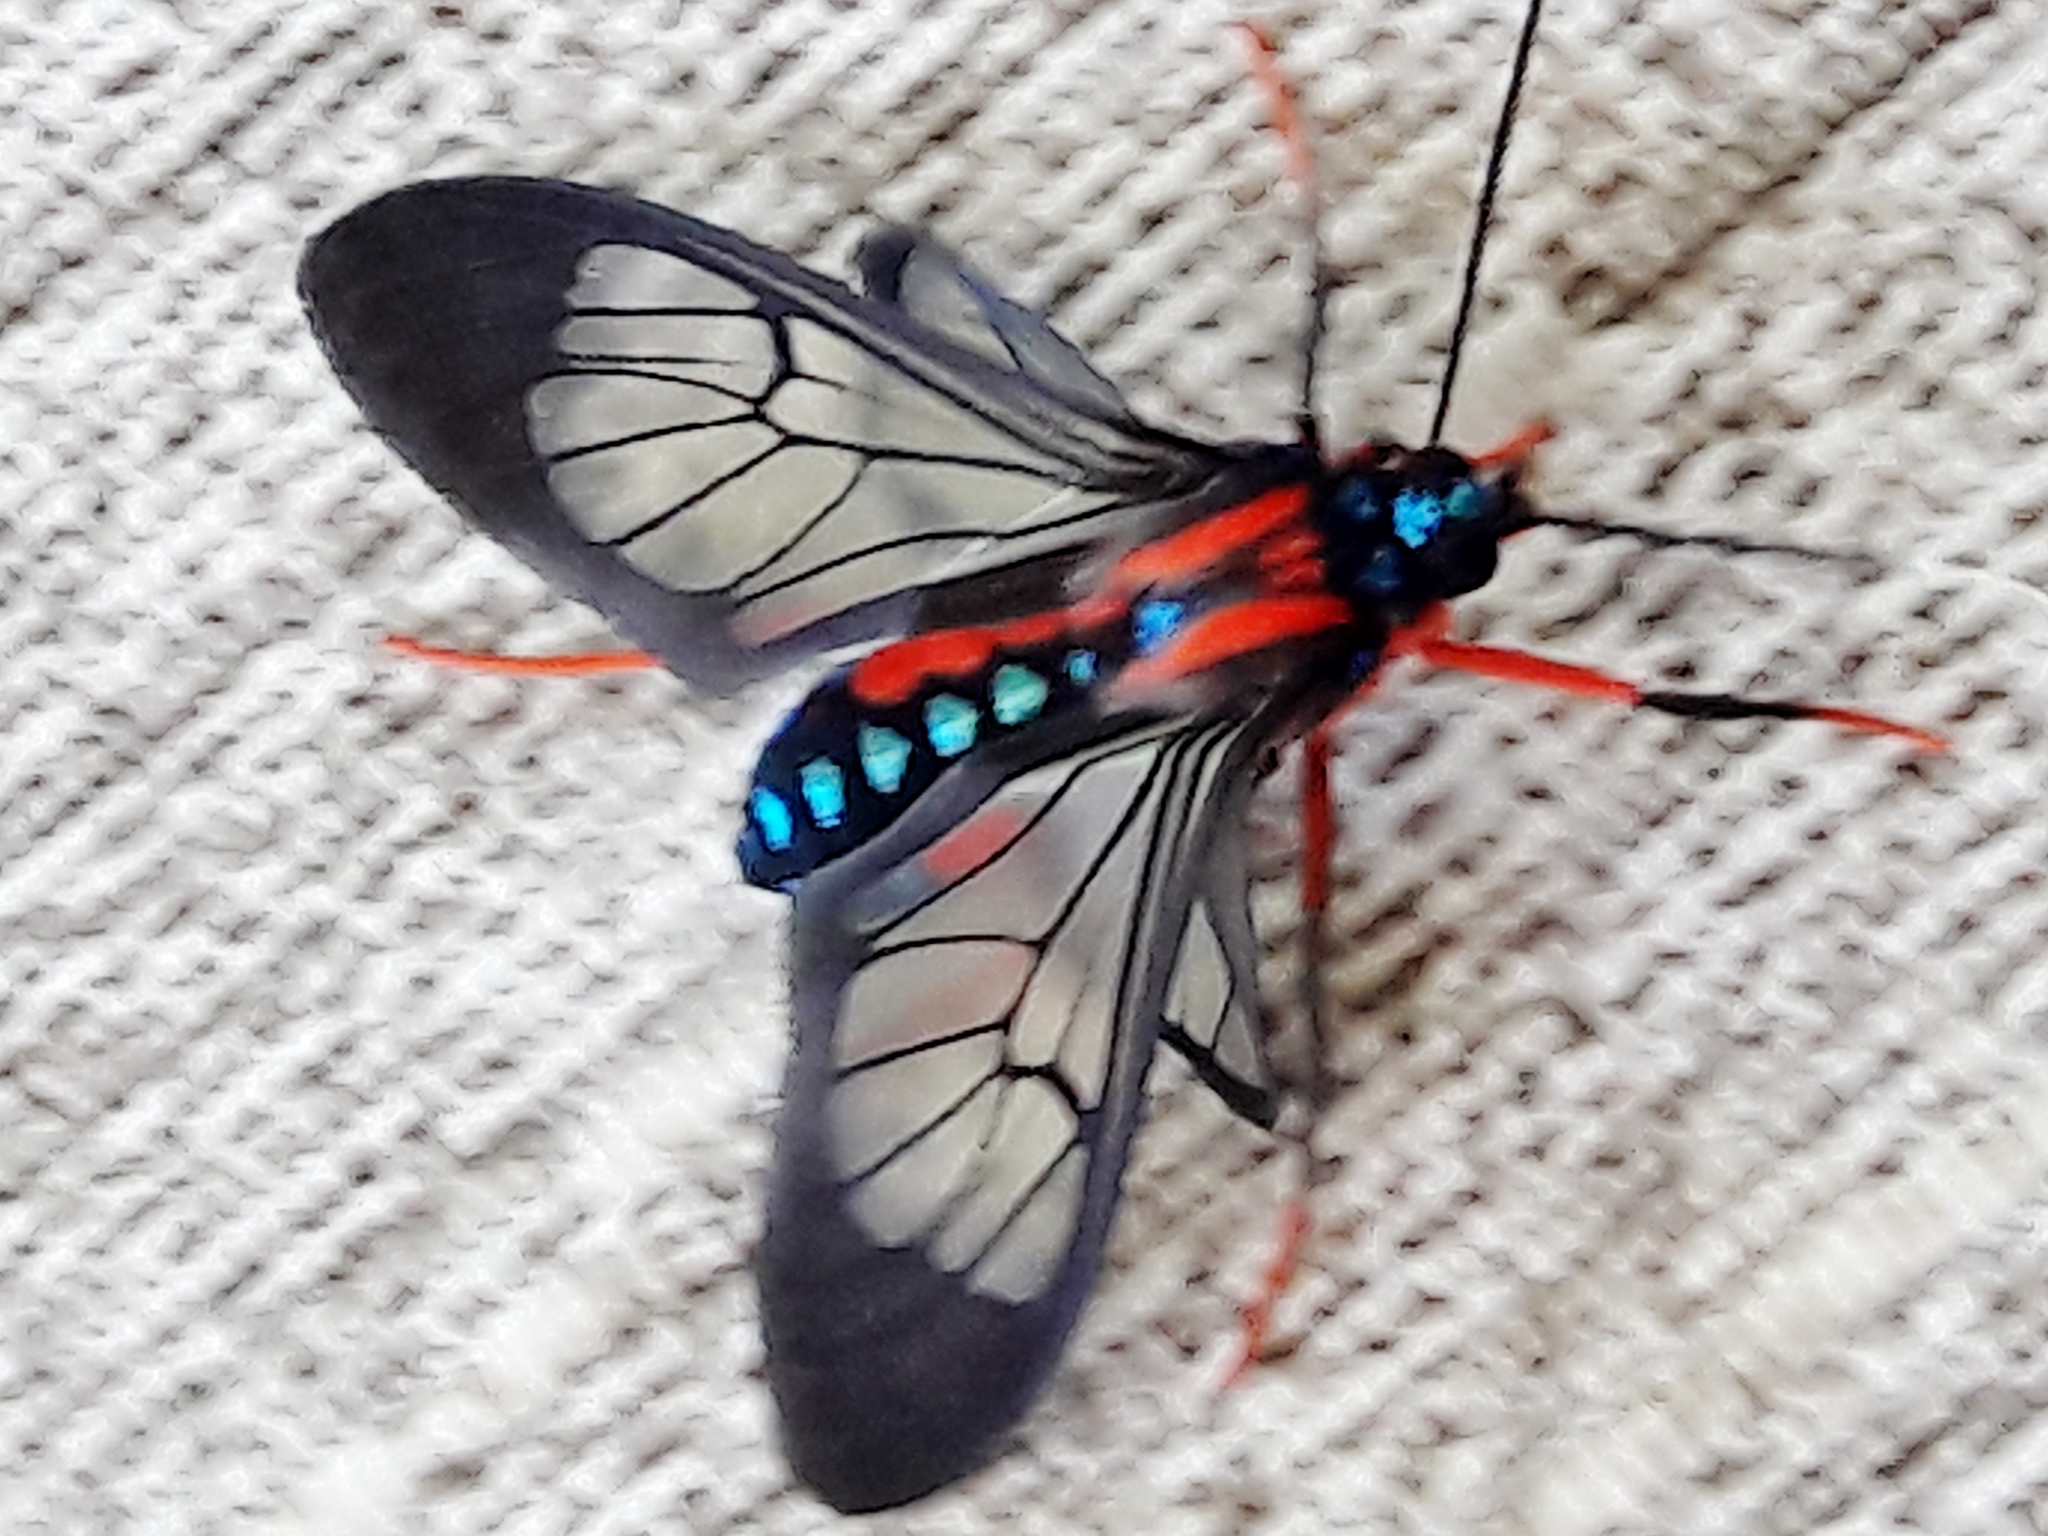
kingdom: Animalia
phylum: Arthropoda
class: Insecta
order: Lepidoptera
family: Erebidae
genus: Cosmosoma
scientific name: Cosmosoma auge
